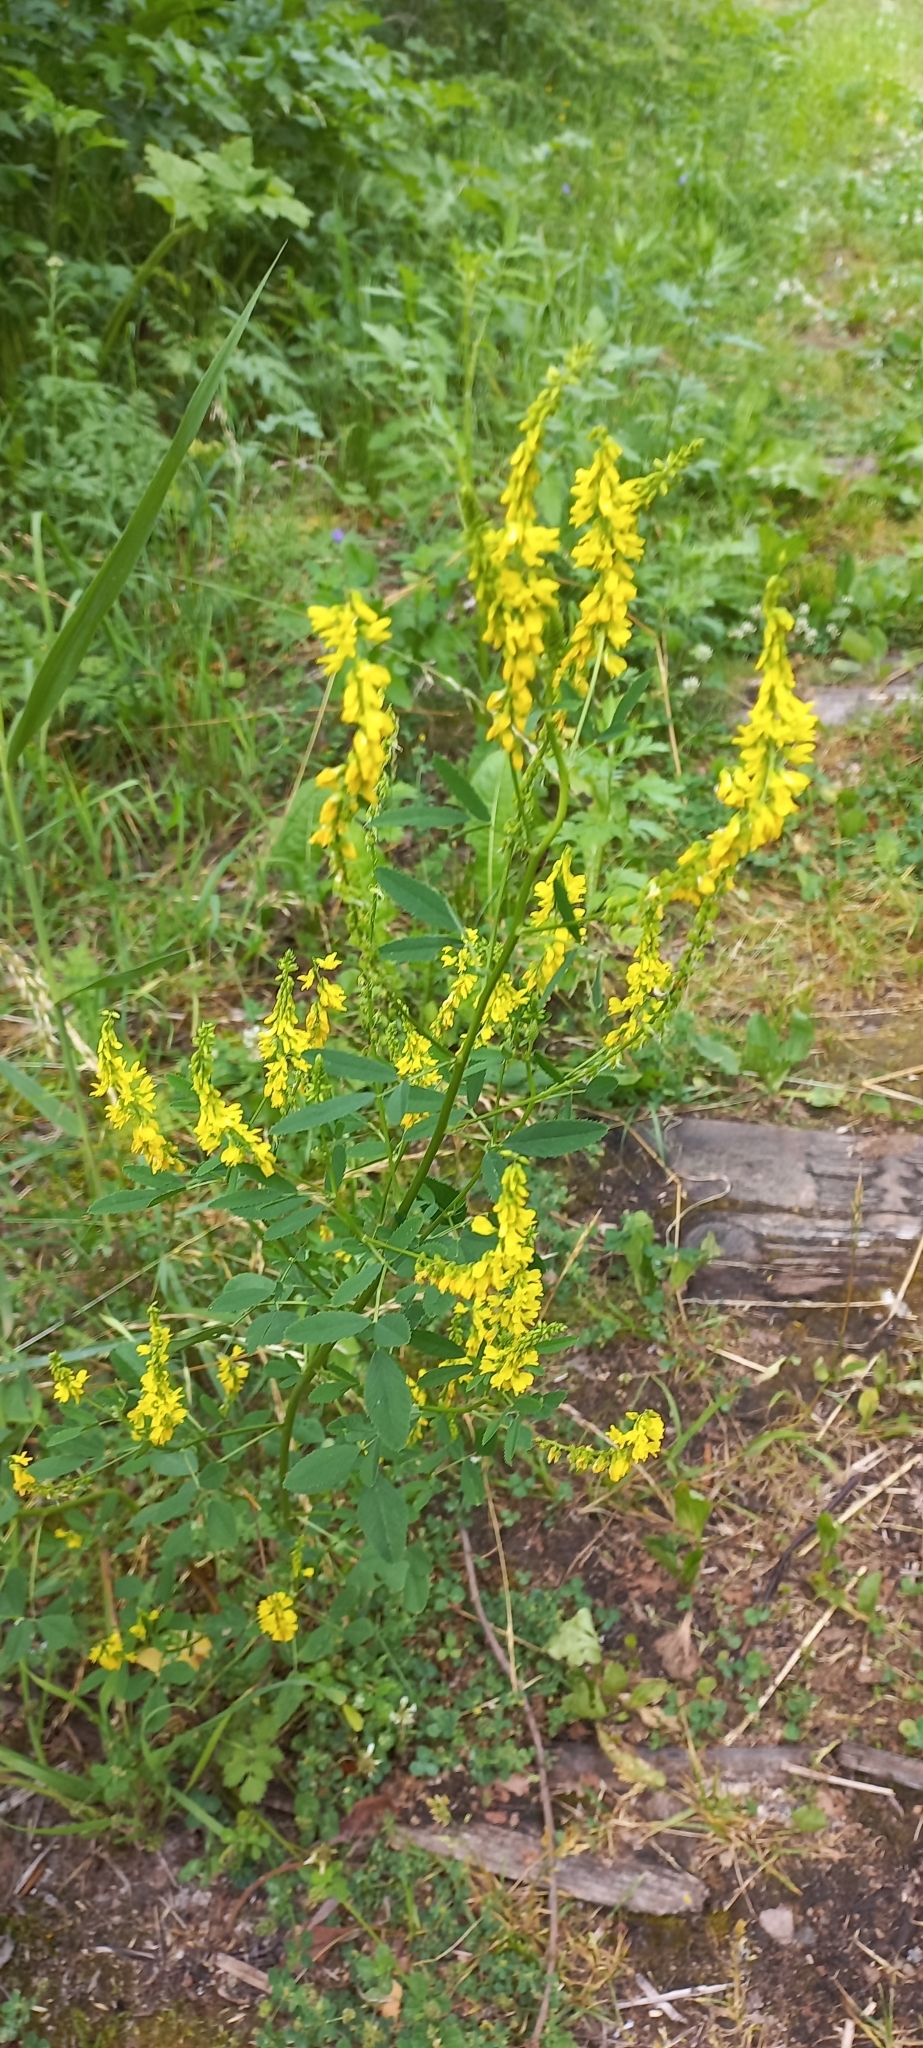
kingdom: Plantae
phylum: Tracheophyta
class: Magnoliopsida
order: Fabales
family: Fabaceae
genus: Melilotus
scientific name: Melilotus officinalis
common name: Sweetclover
